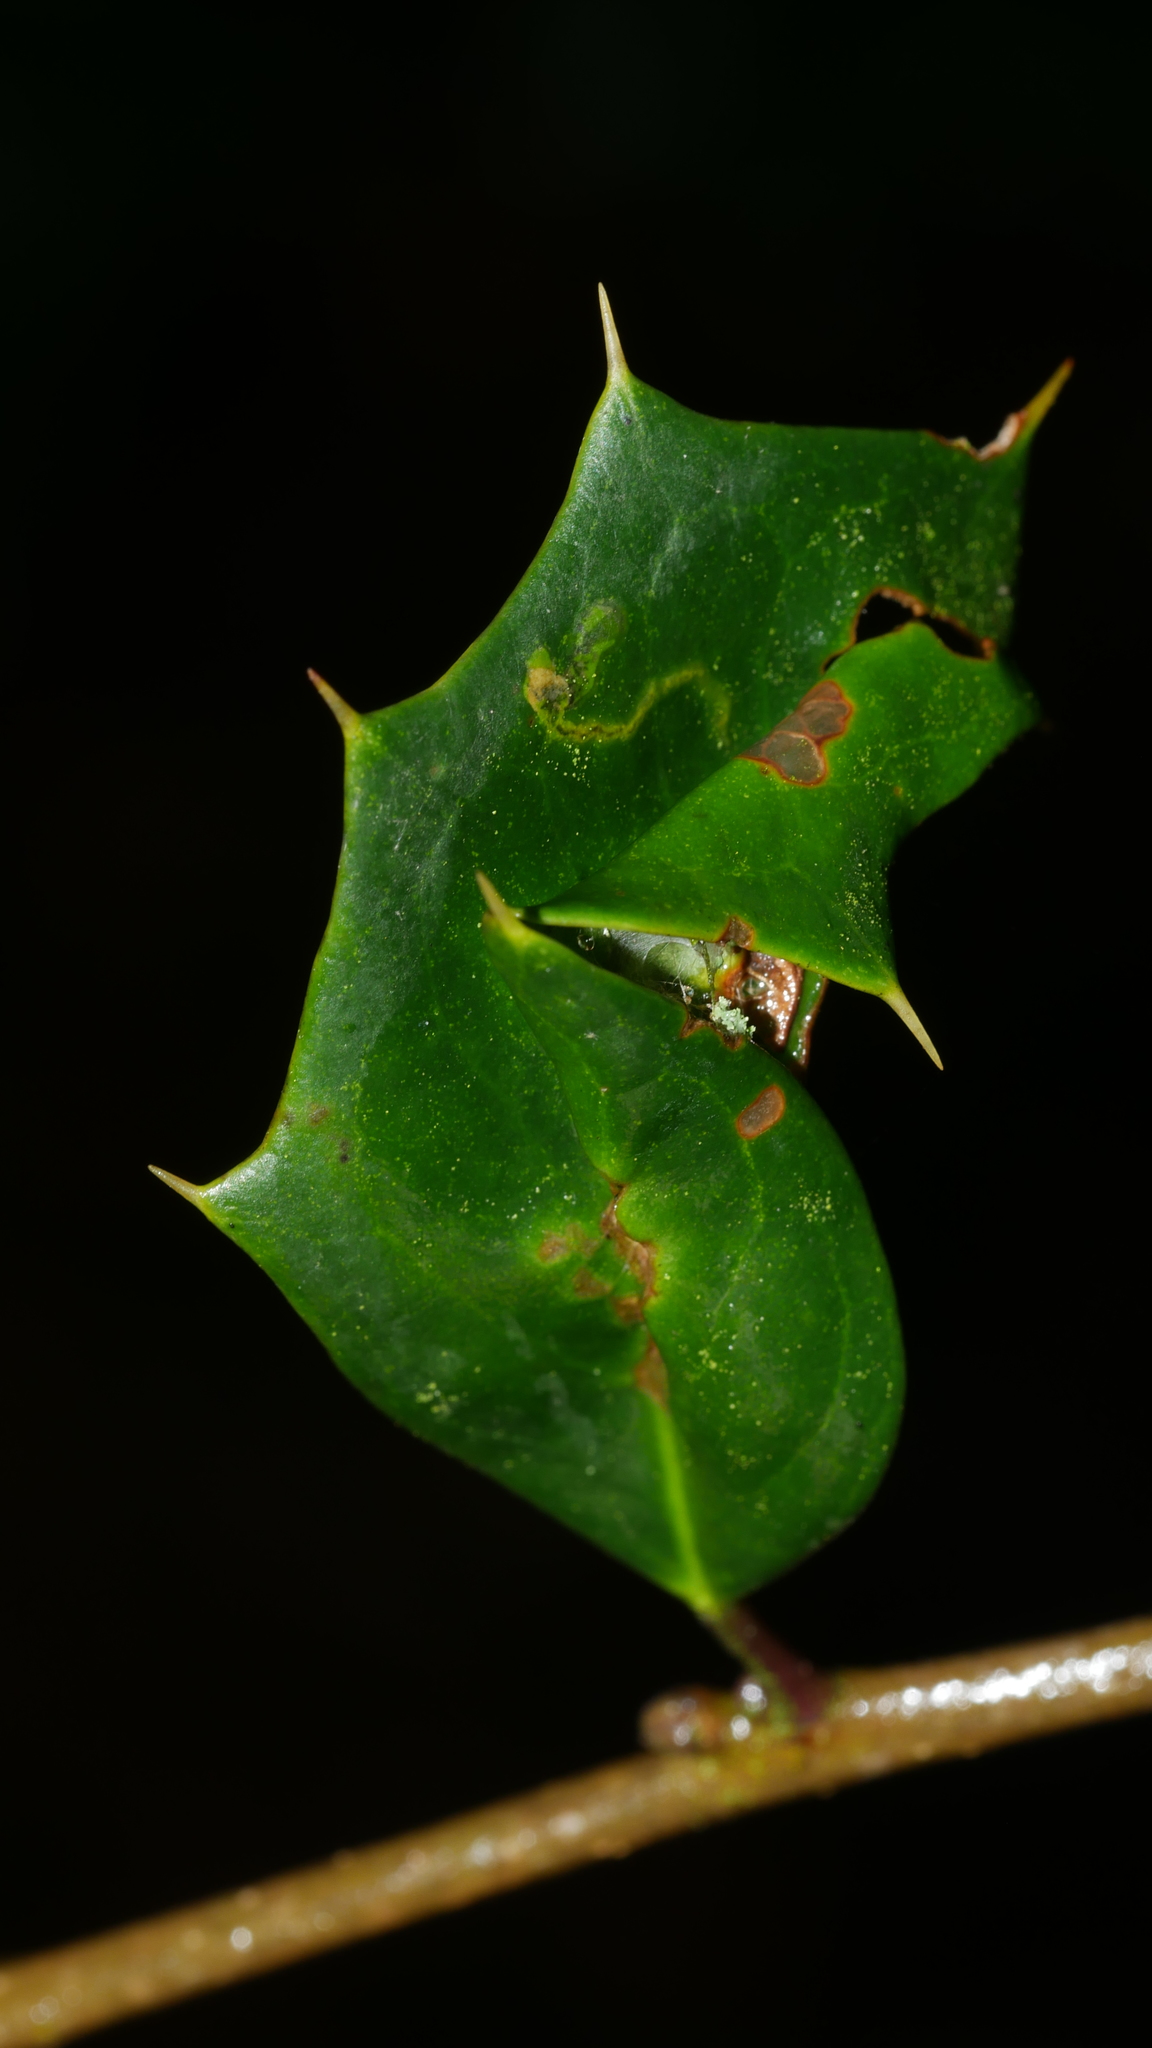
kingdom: Animalia
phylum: Arthropoda
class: Insecta
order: Diptera
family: Agromyzidae
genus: Phytomyza
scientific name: Phytomyza
